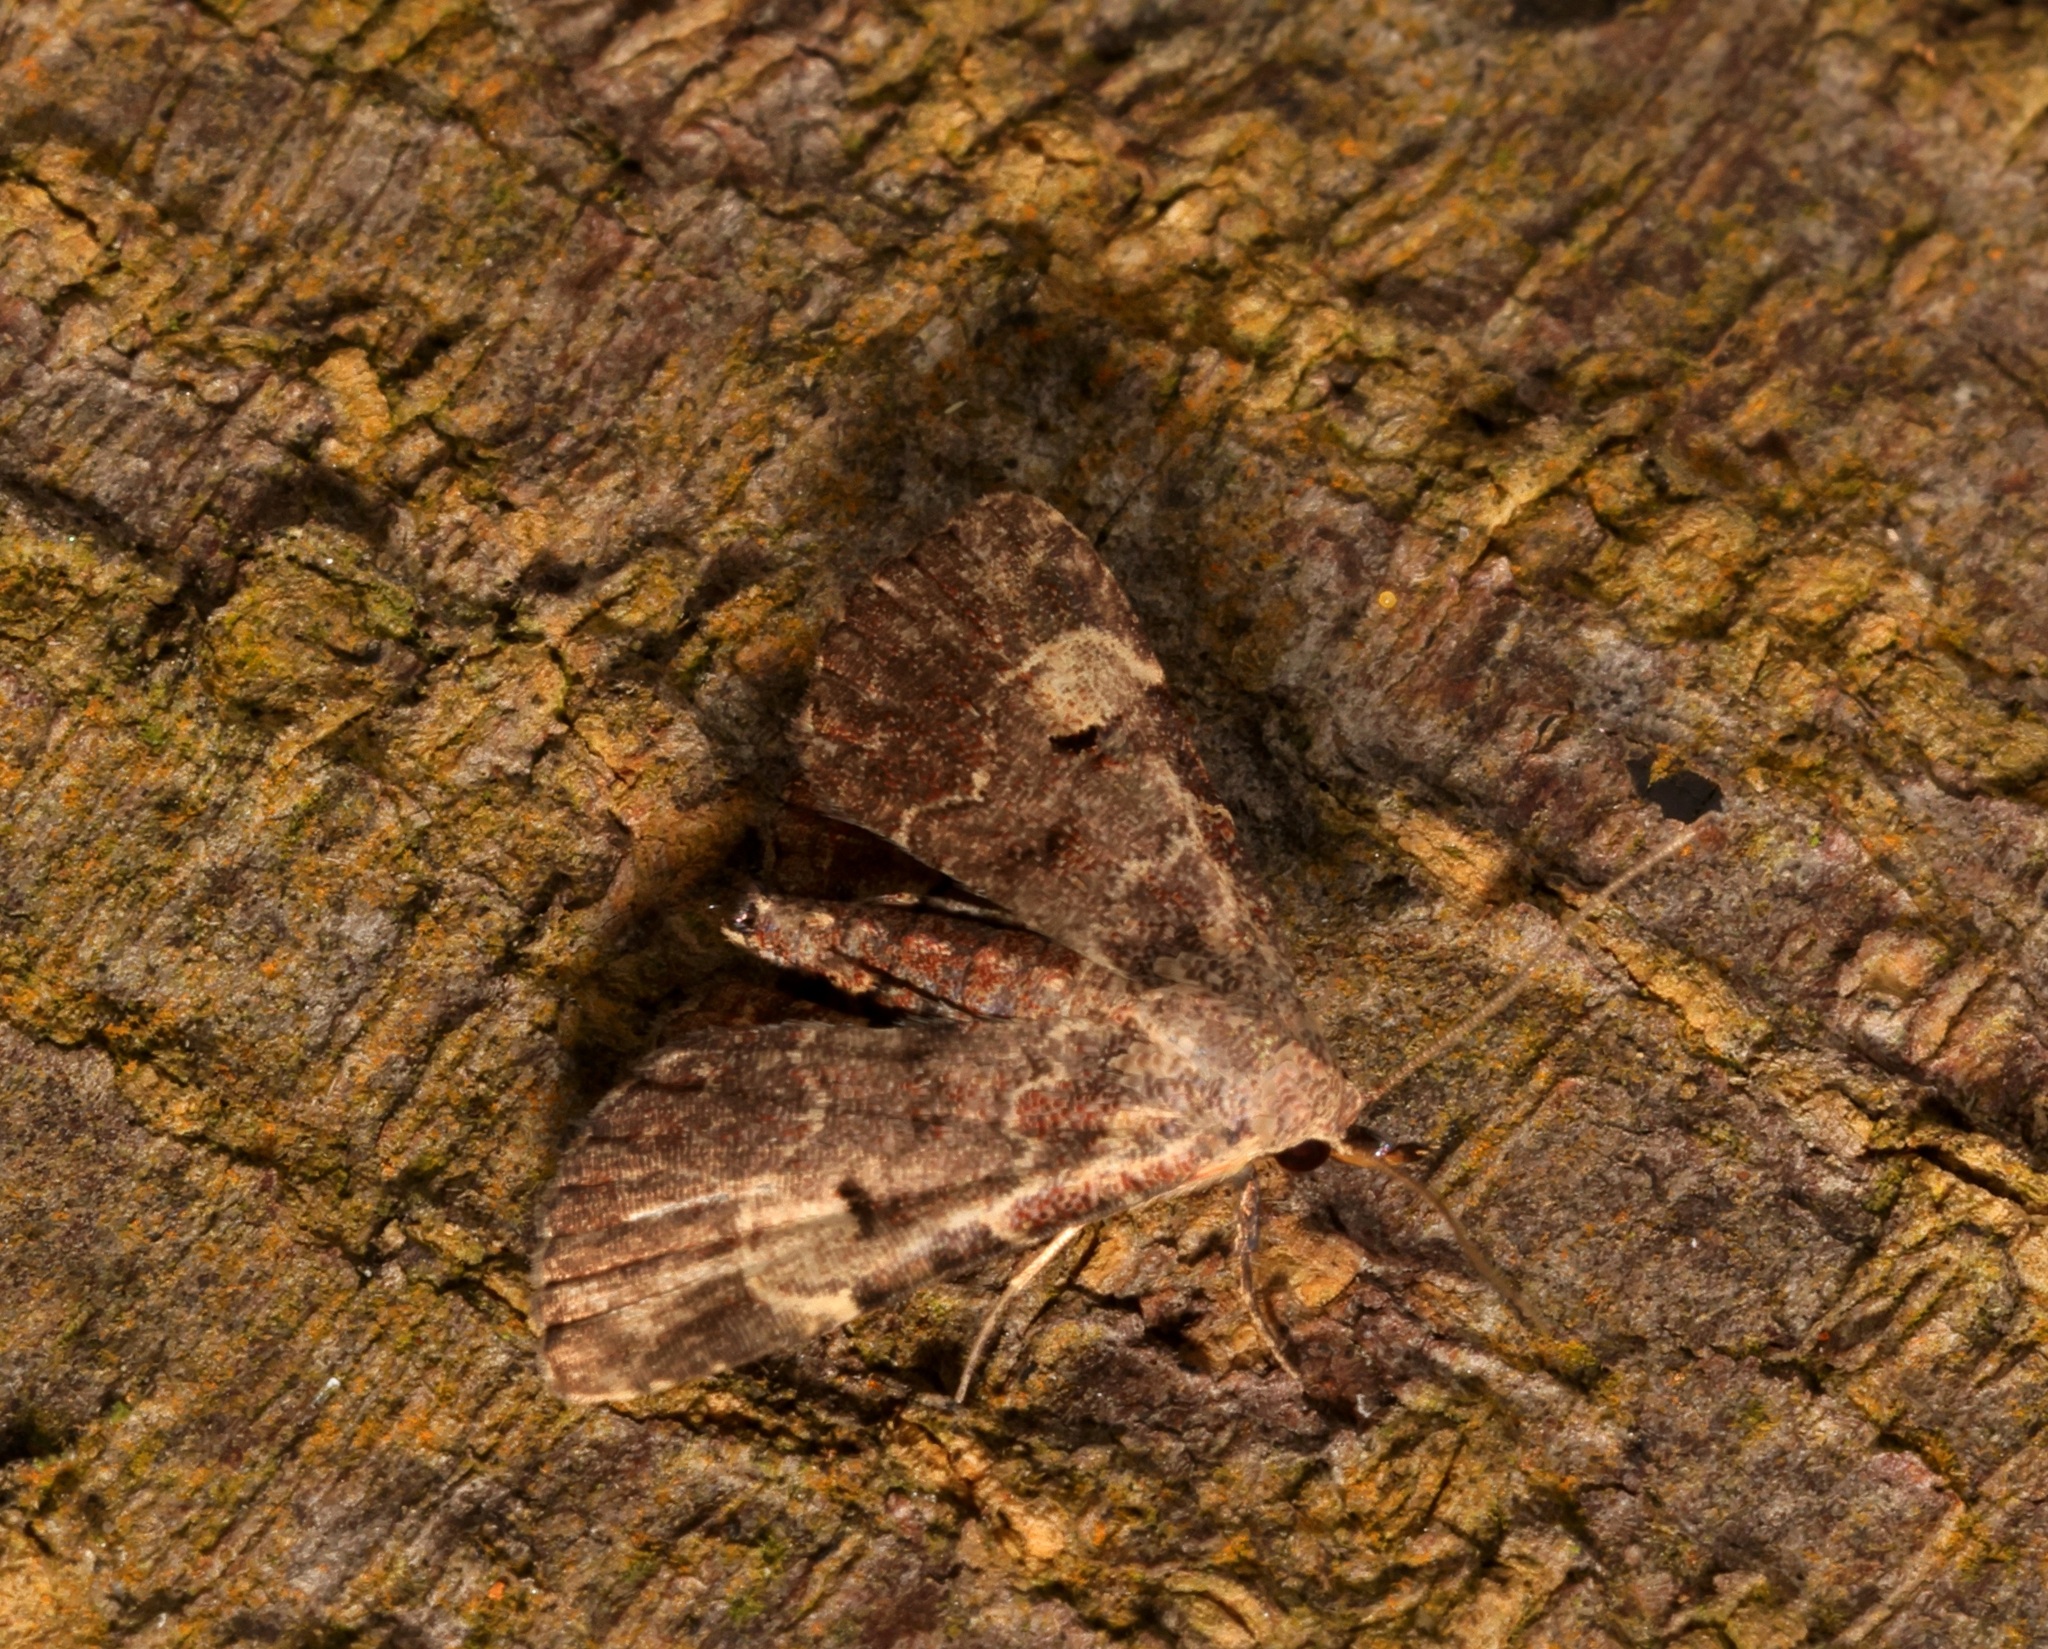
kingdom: Animalia
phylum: Arthropoda
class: Insecta
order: Lepidoptera
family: Erebidae
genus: Maguda
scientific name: Maguda suffusa
